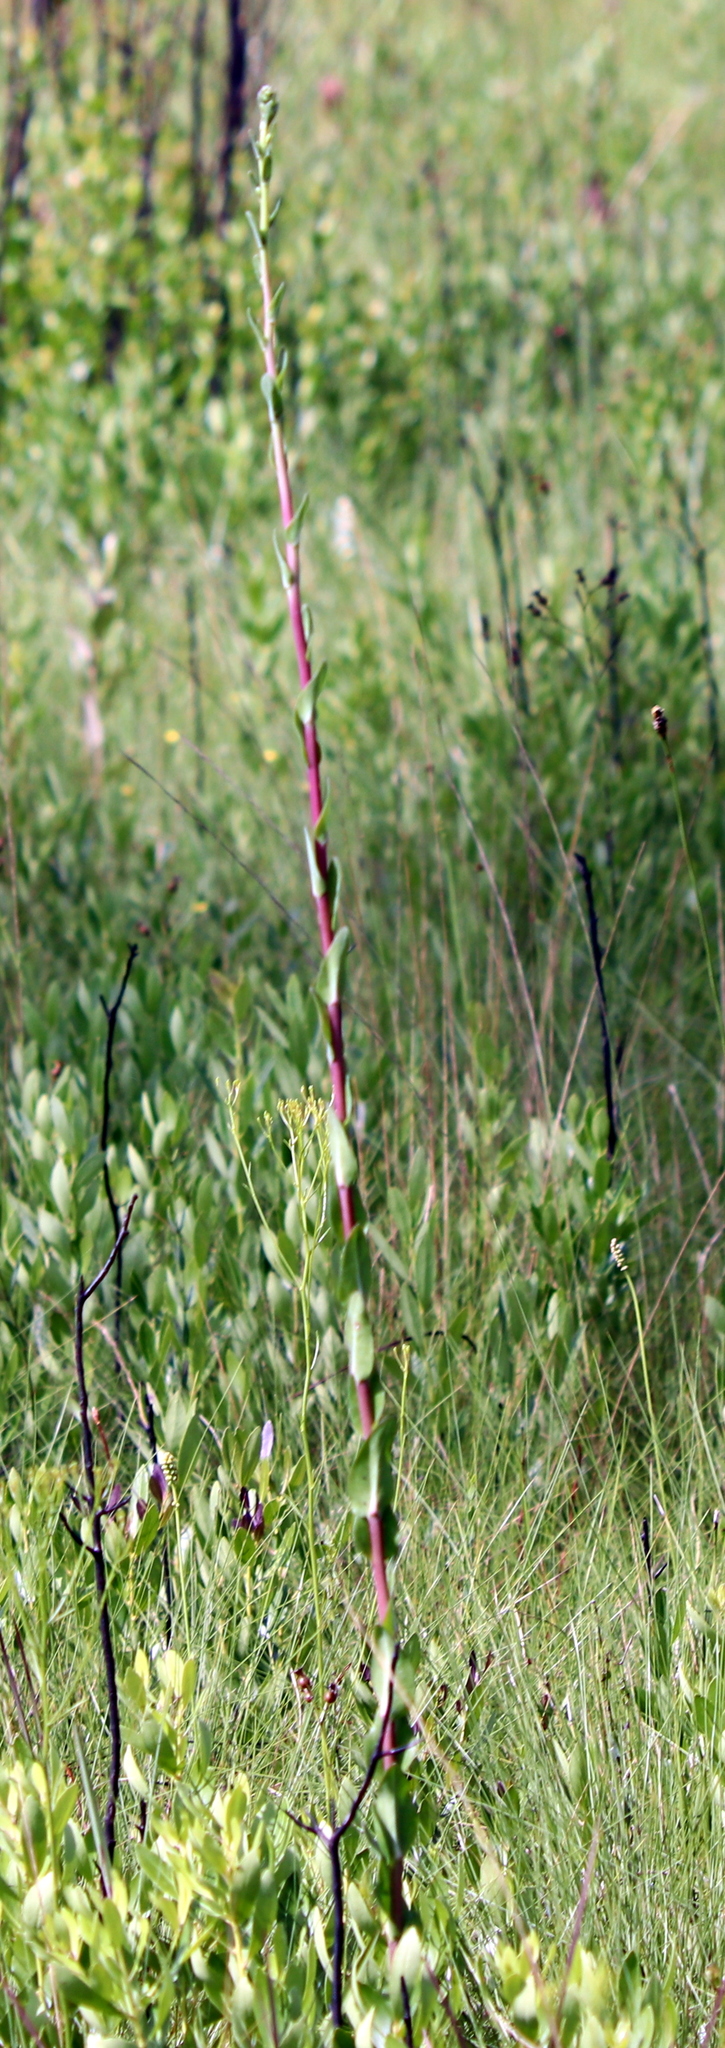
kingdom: Plantae
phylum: Tracheophyta
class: Magnoliopsida
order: Asterales
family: Asteraceae
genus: Carphephorus
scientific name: Carphephorus odoratissimus
